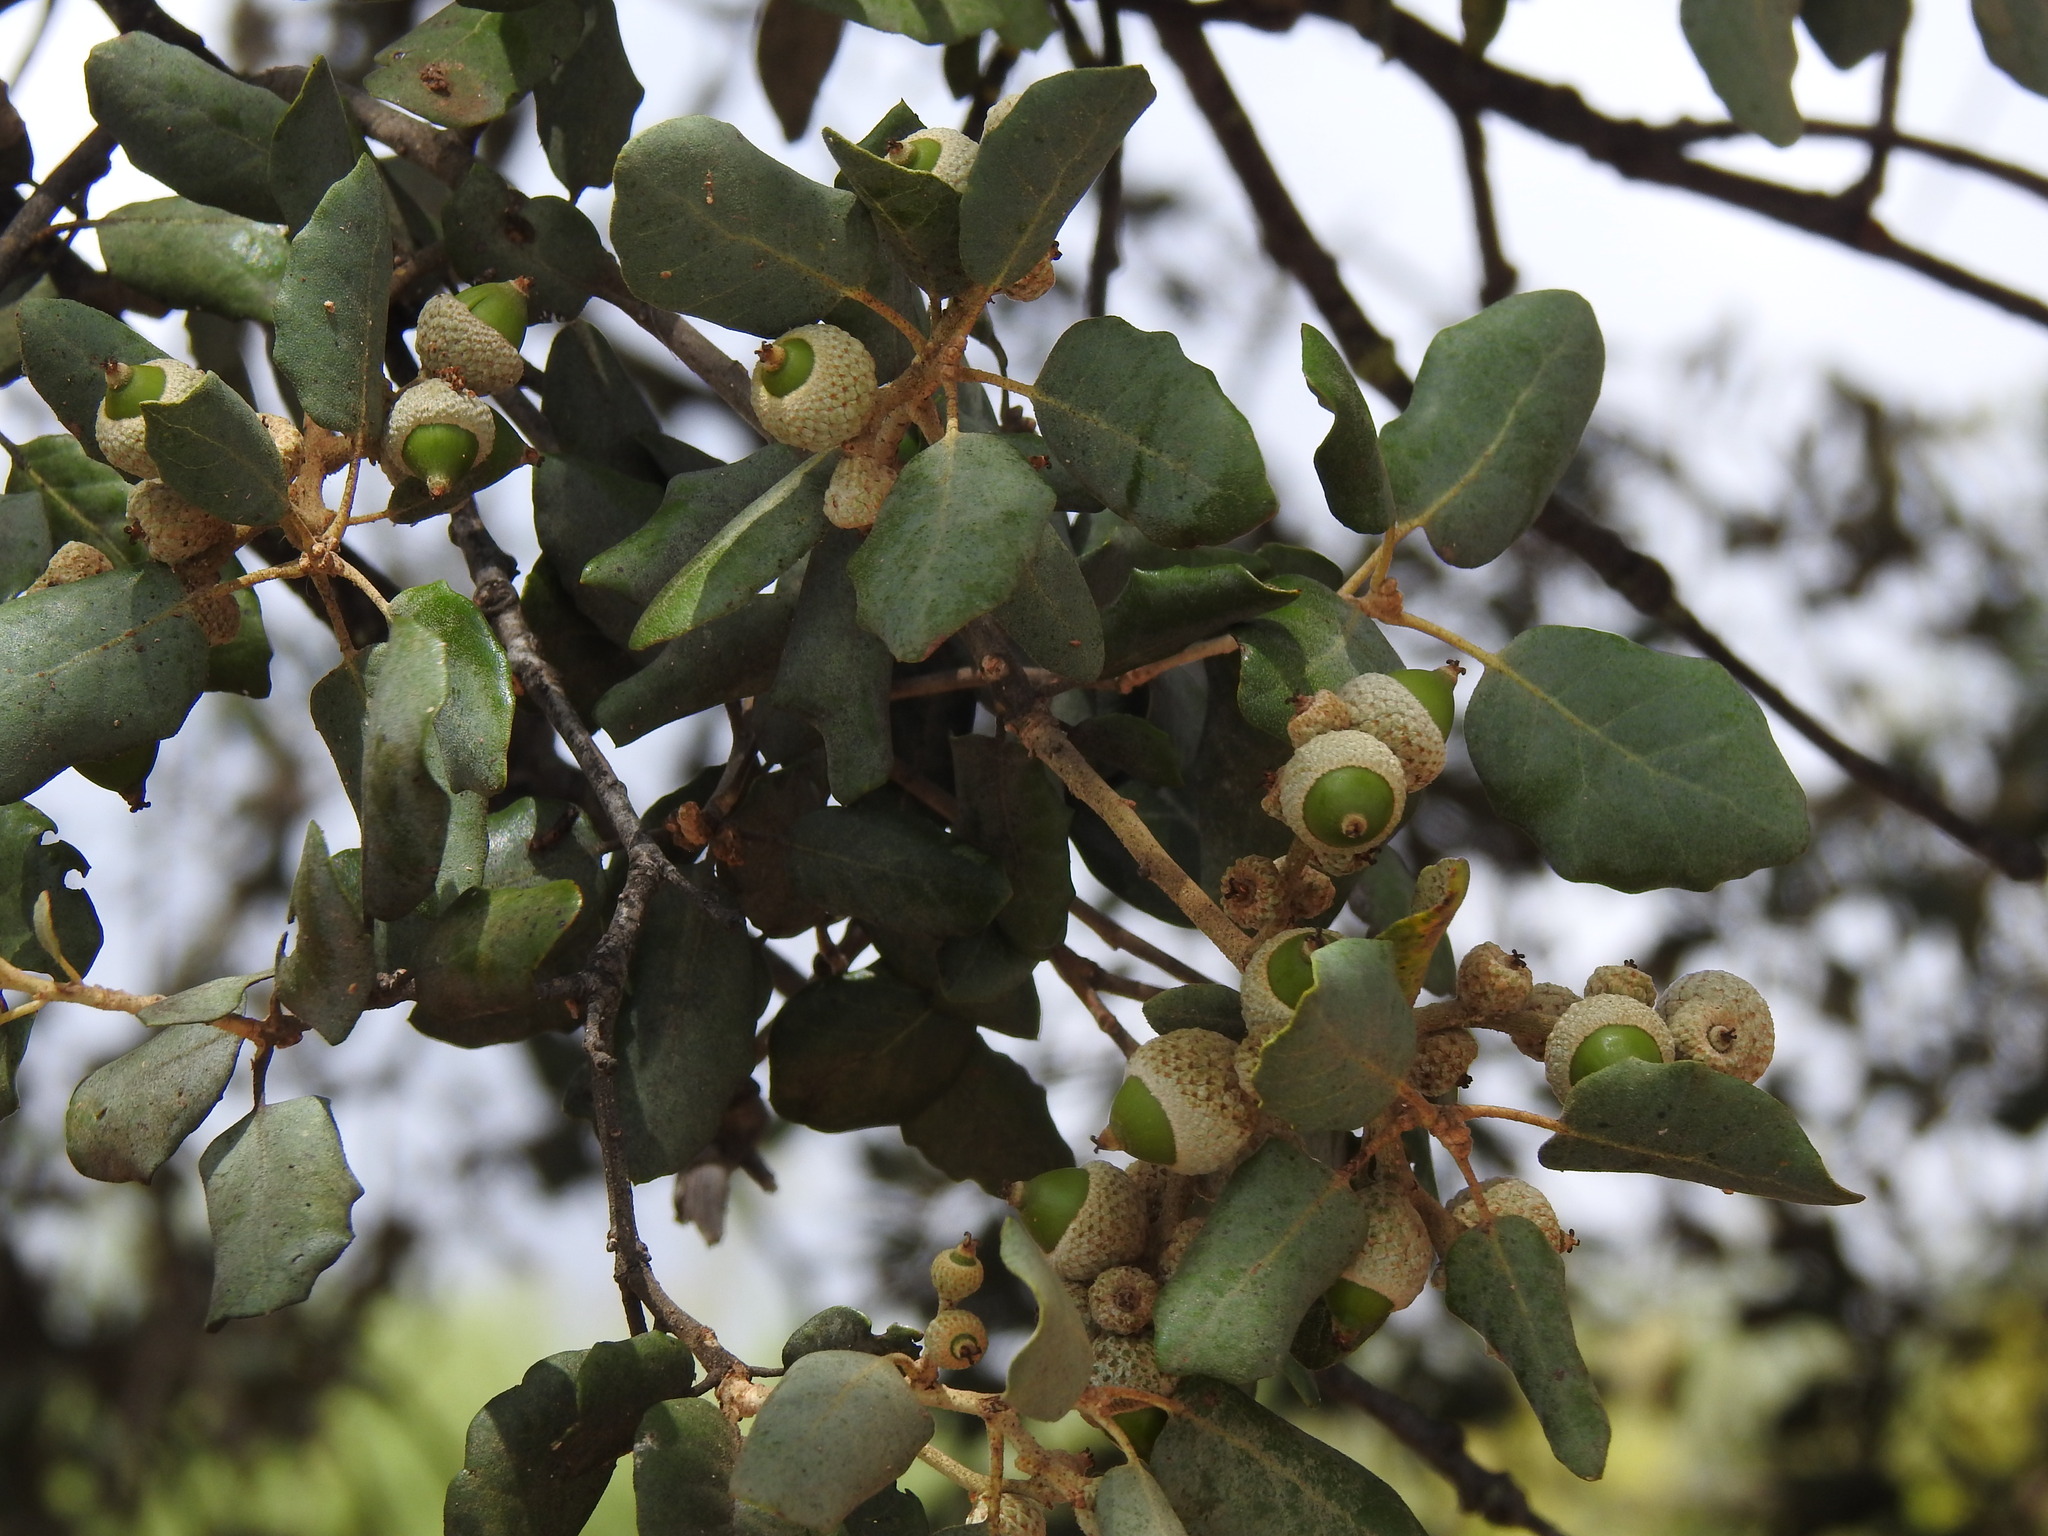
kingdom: Plantae
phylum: Tracheophyta
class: Magnoliopsida
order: Fagales
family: Fagaceae
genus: Quercus
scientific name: Quercus rotundifolia
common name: Holm oak
